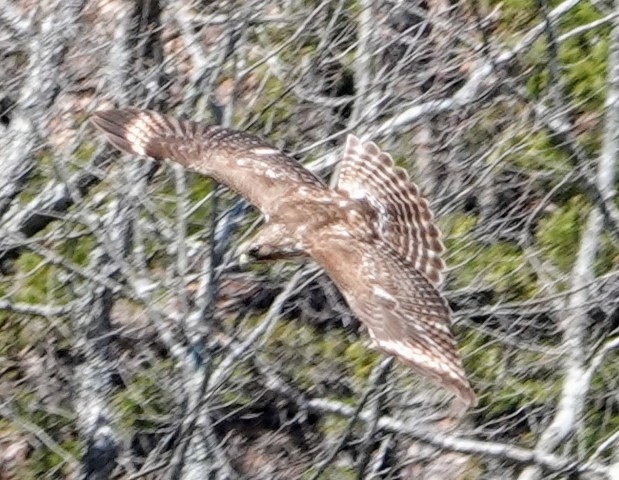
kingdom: Animalia
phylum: Chordata
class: Aves
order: Accipitriformes
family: Accipitridae
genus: Buteo
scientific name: Buteo lineatus
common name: Red-shouldered hawk
